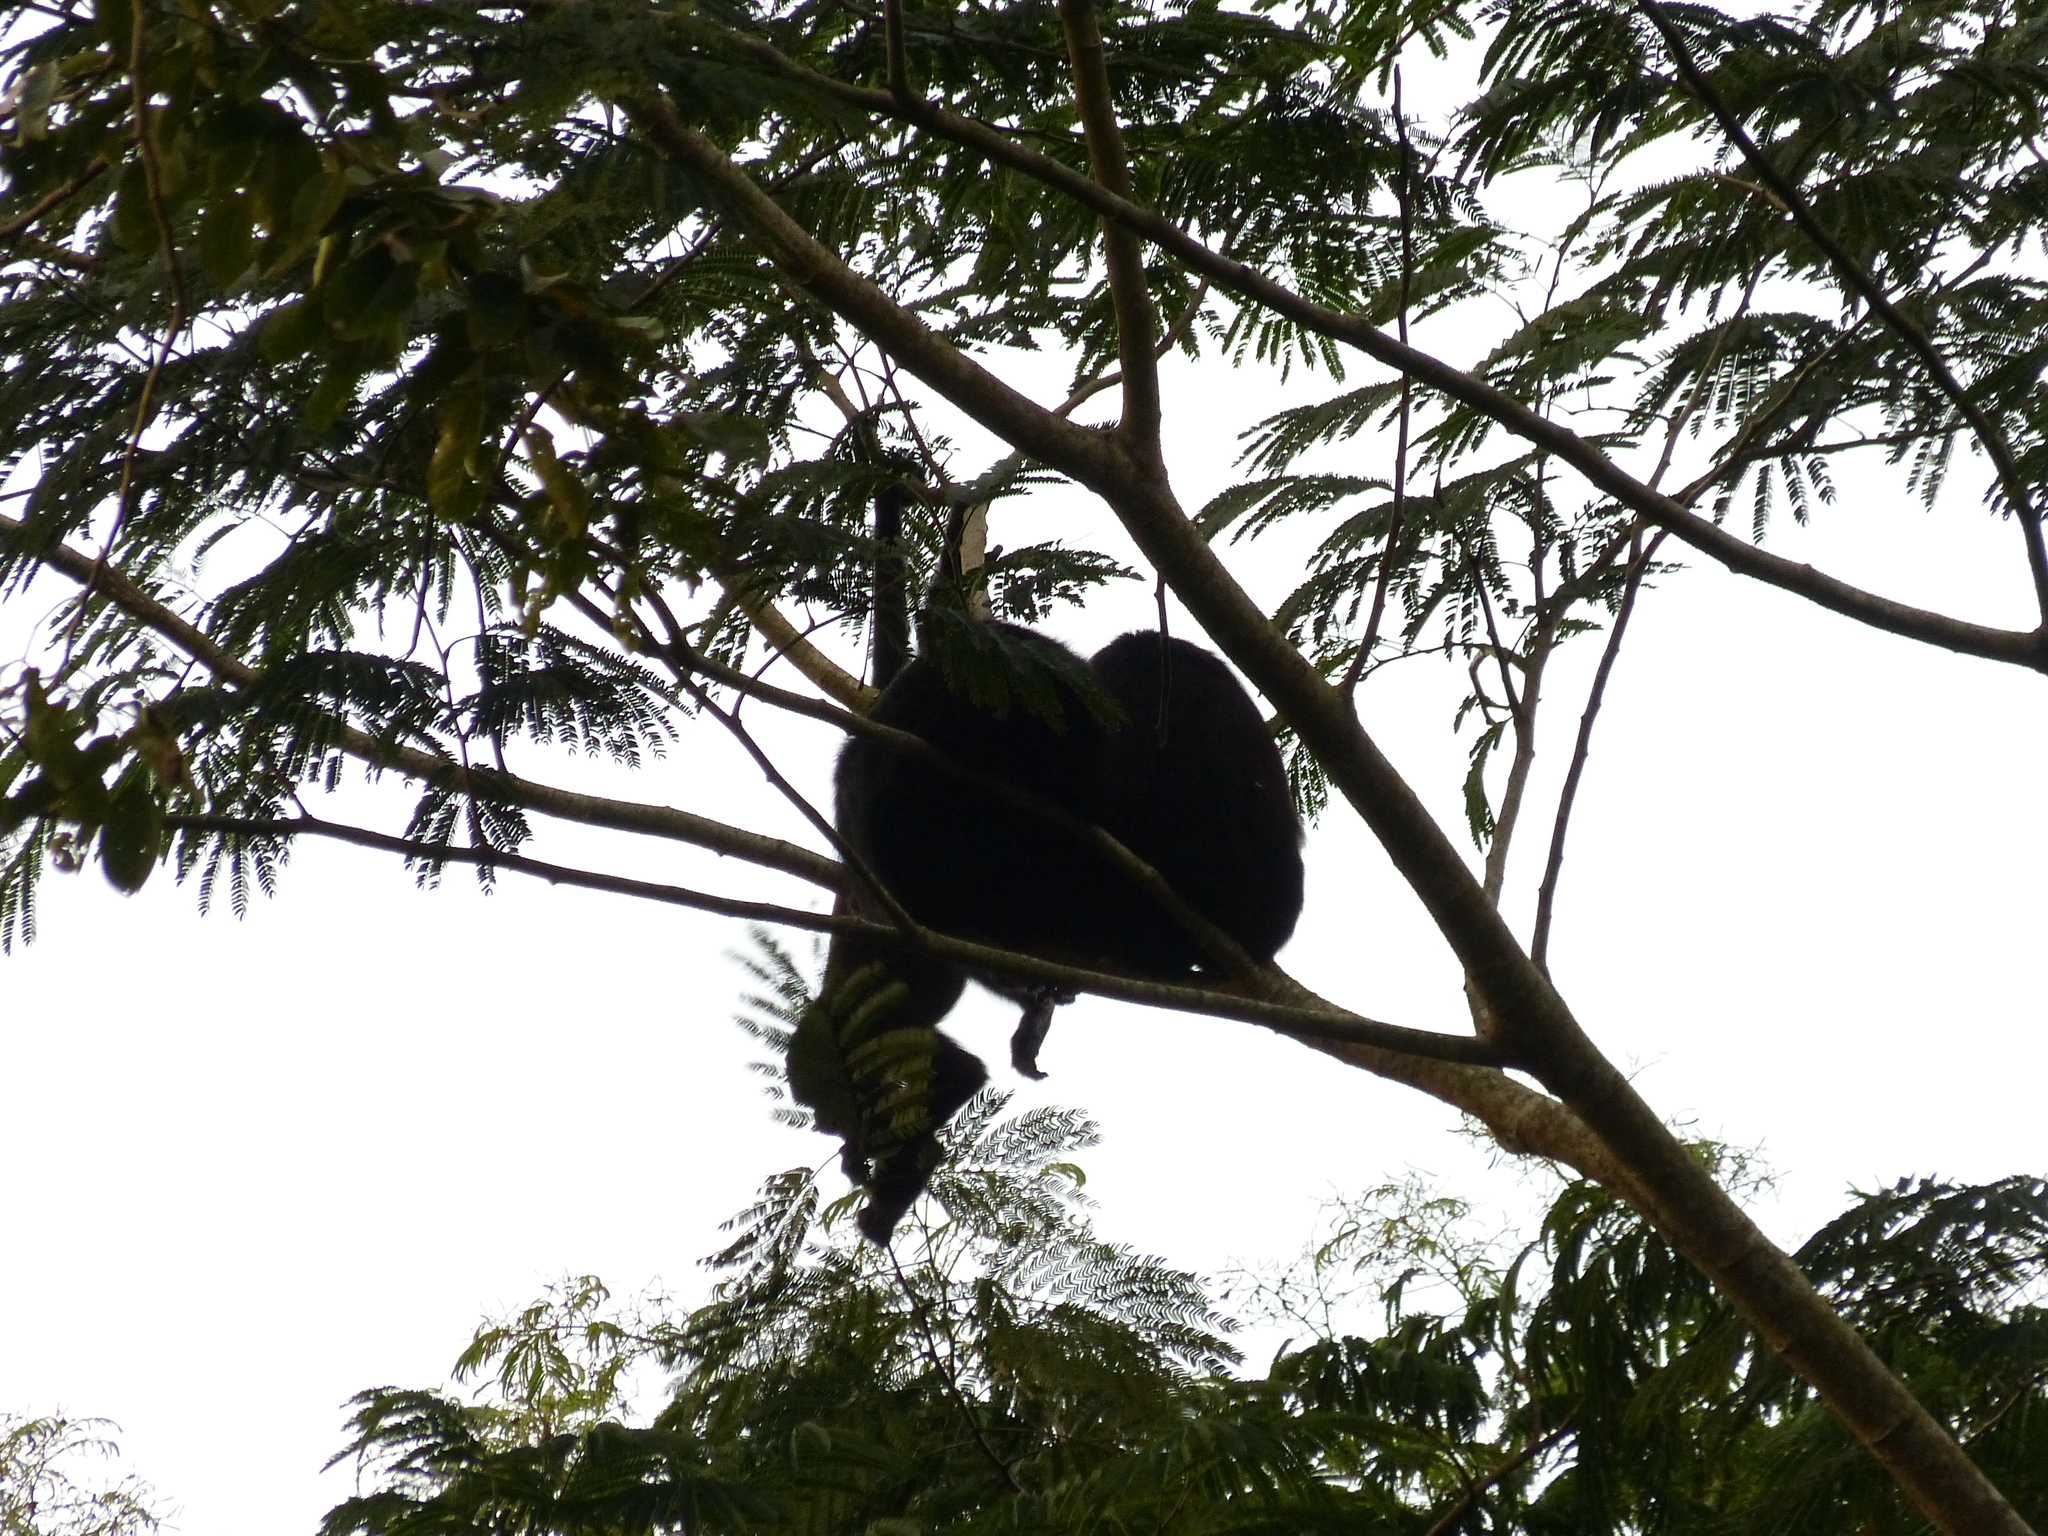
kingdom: Animalia
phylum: Chordata
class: Mammalia
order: Primates
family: Atelidae
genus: Alouatta
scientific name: Alouatta pigra
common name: Guatemalan black howler
